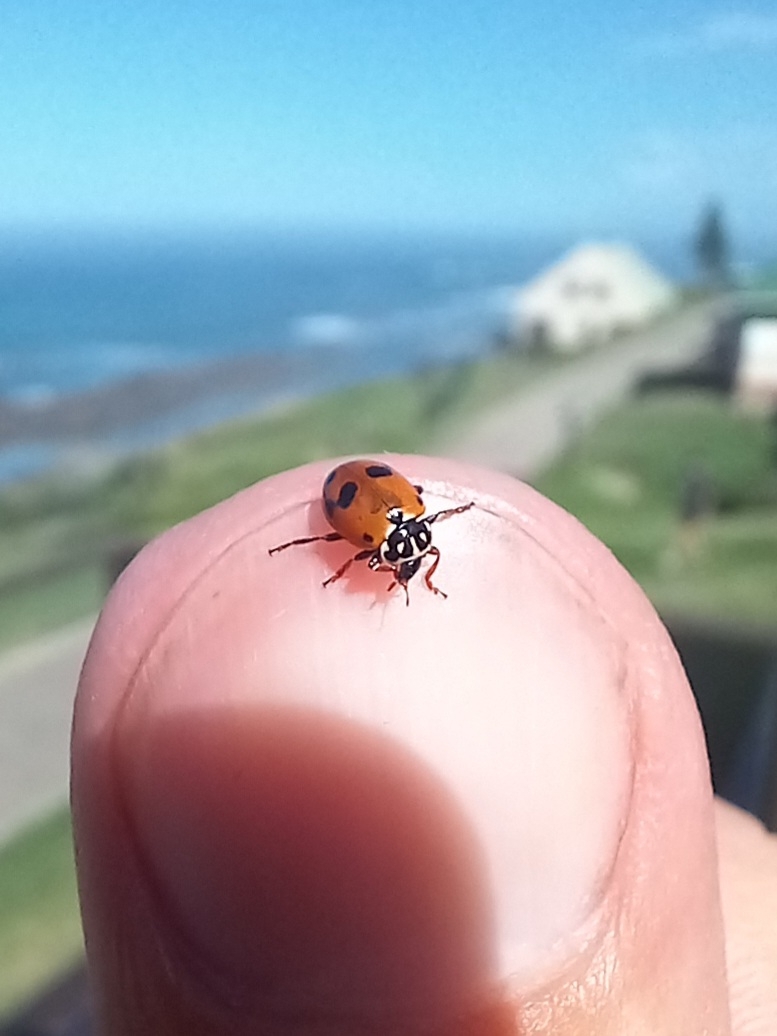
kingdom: Animalia
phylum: Arthropoda
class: Insecta
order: Coleoptera
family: Coccinellidae
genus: Hippodamia
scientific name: Hippodamia variegata
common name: Ladybird beetle
